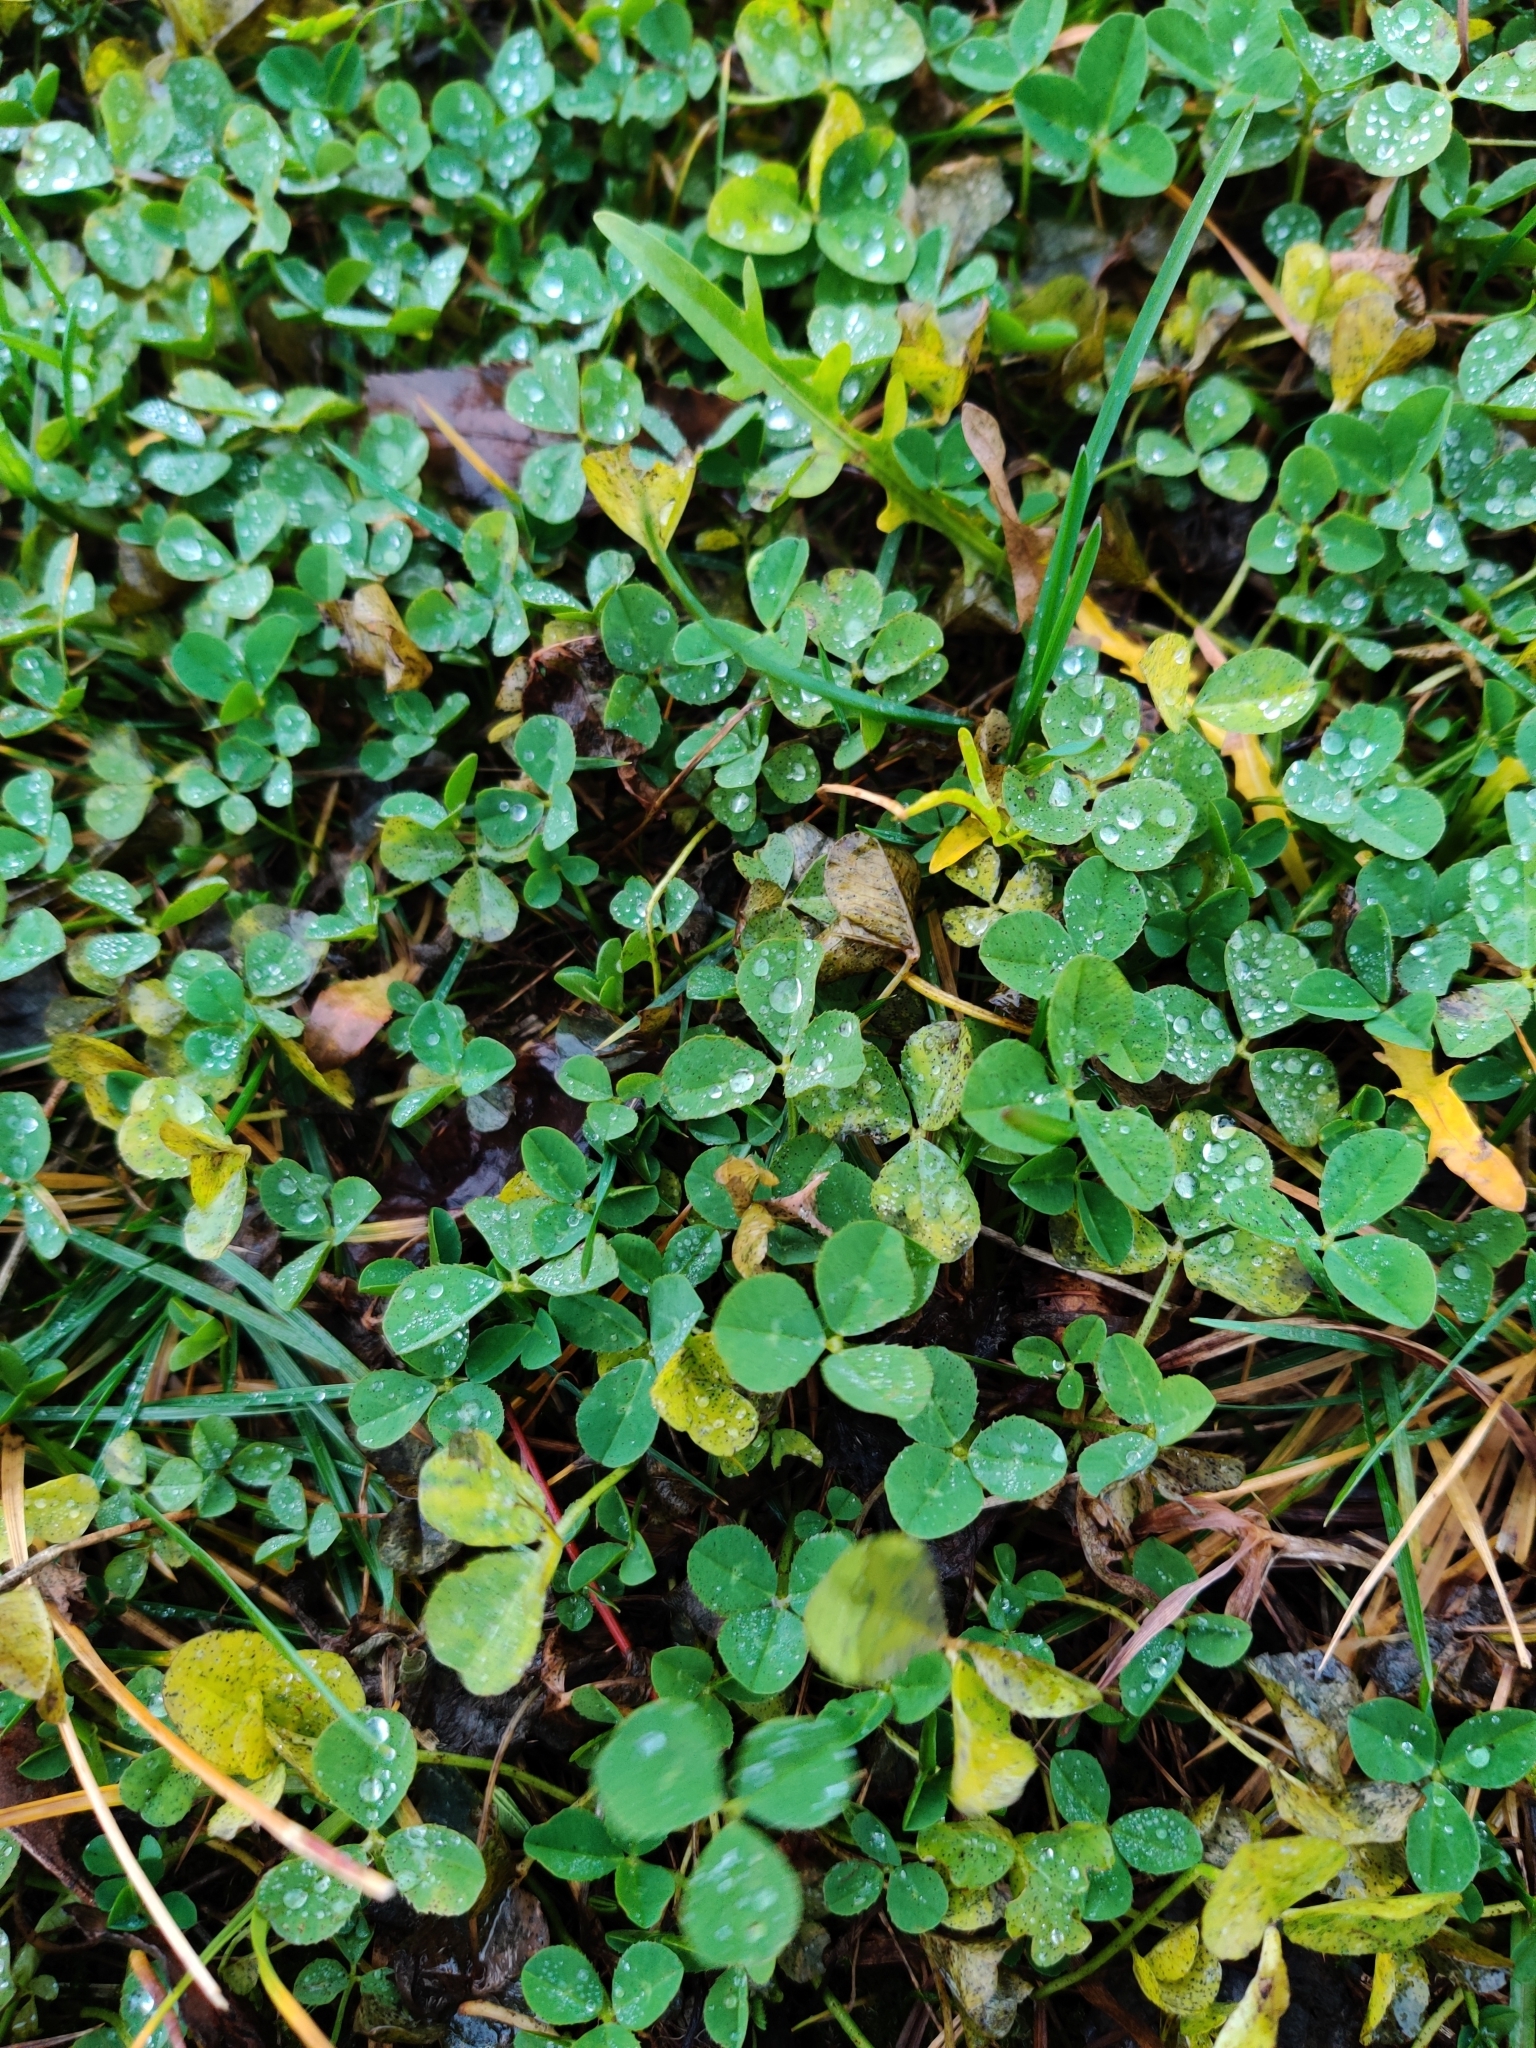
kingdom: Plantae
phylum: Tracheophyta
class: Magnoliopsida
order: Fabales
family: Fabaceae
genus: Trifolium
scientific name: Trifolium repens
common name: White clover
